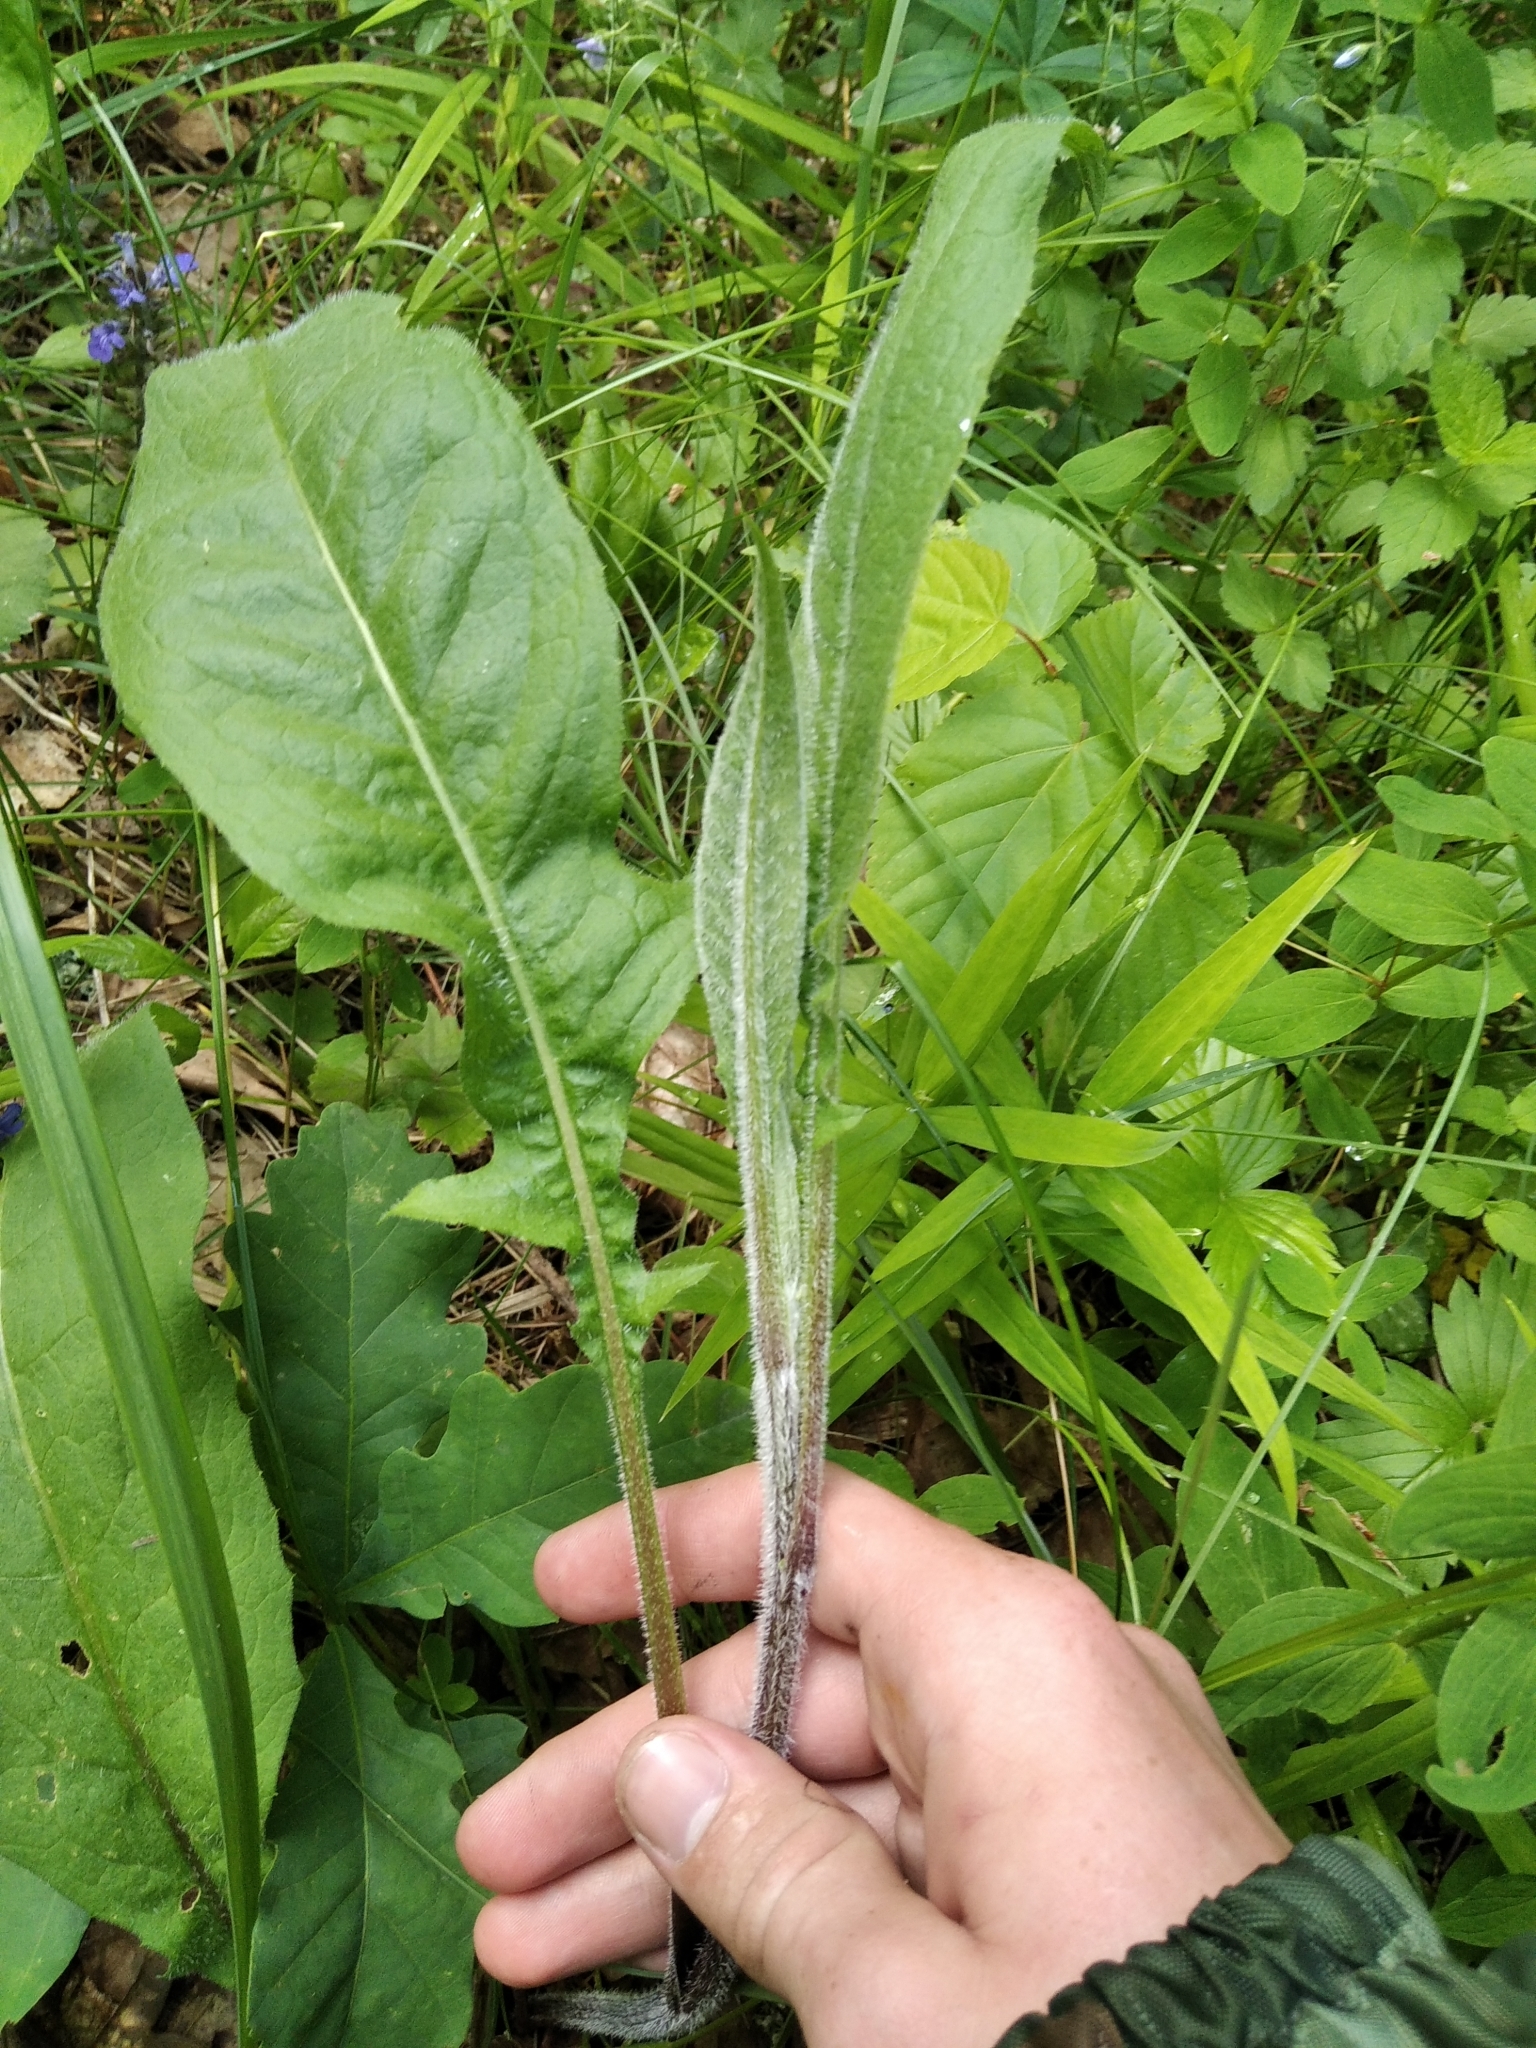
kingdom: Plantae
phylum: Tracheophyta
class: Magnoliopsida
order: Asterales
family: Asteraceae
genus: Centaurea
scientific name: Centaurea jacea
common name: Brown knapweed
